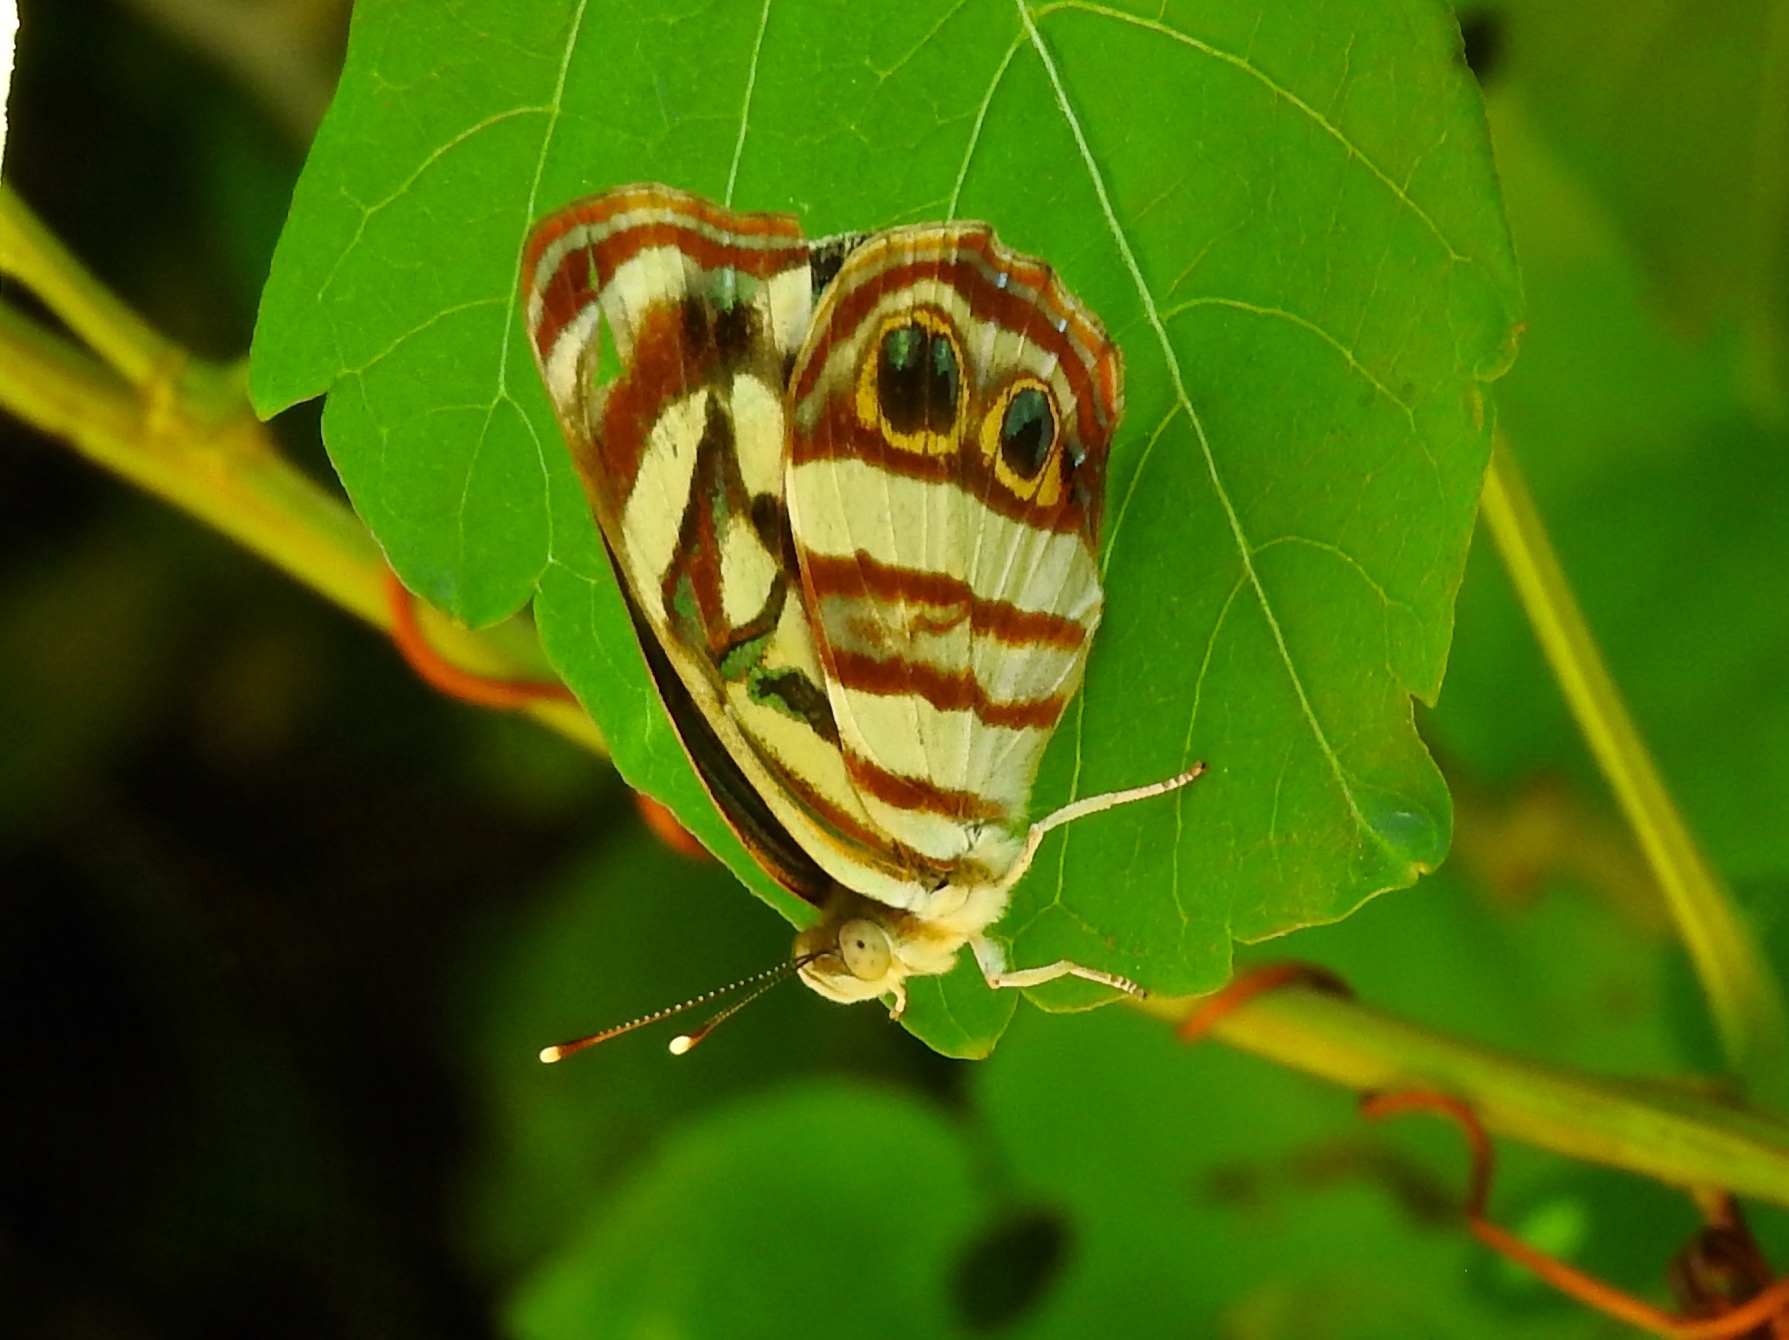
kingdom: Animalia
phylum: Arthropoda
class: Insecta
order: Lepidoptera
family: Nymphalidae
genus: Dynamine
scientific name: Dynamine mylitta
